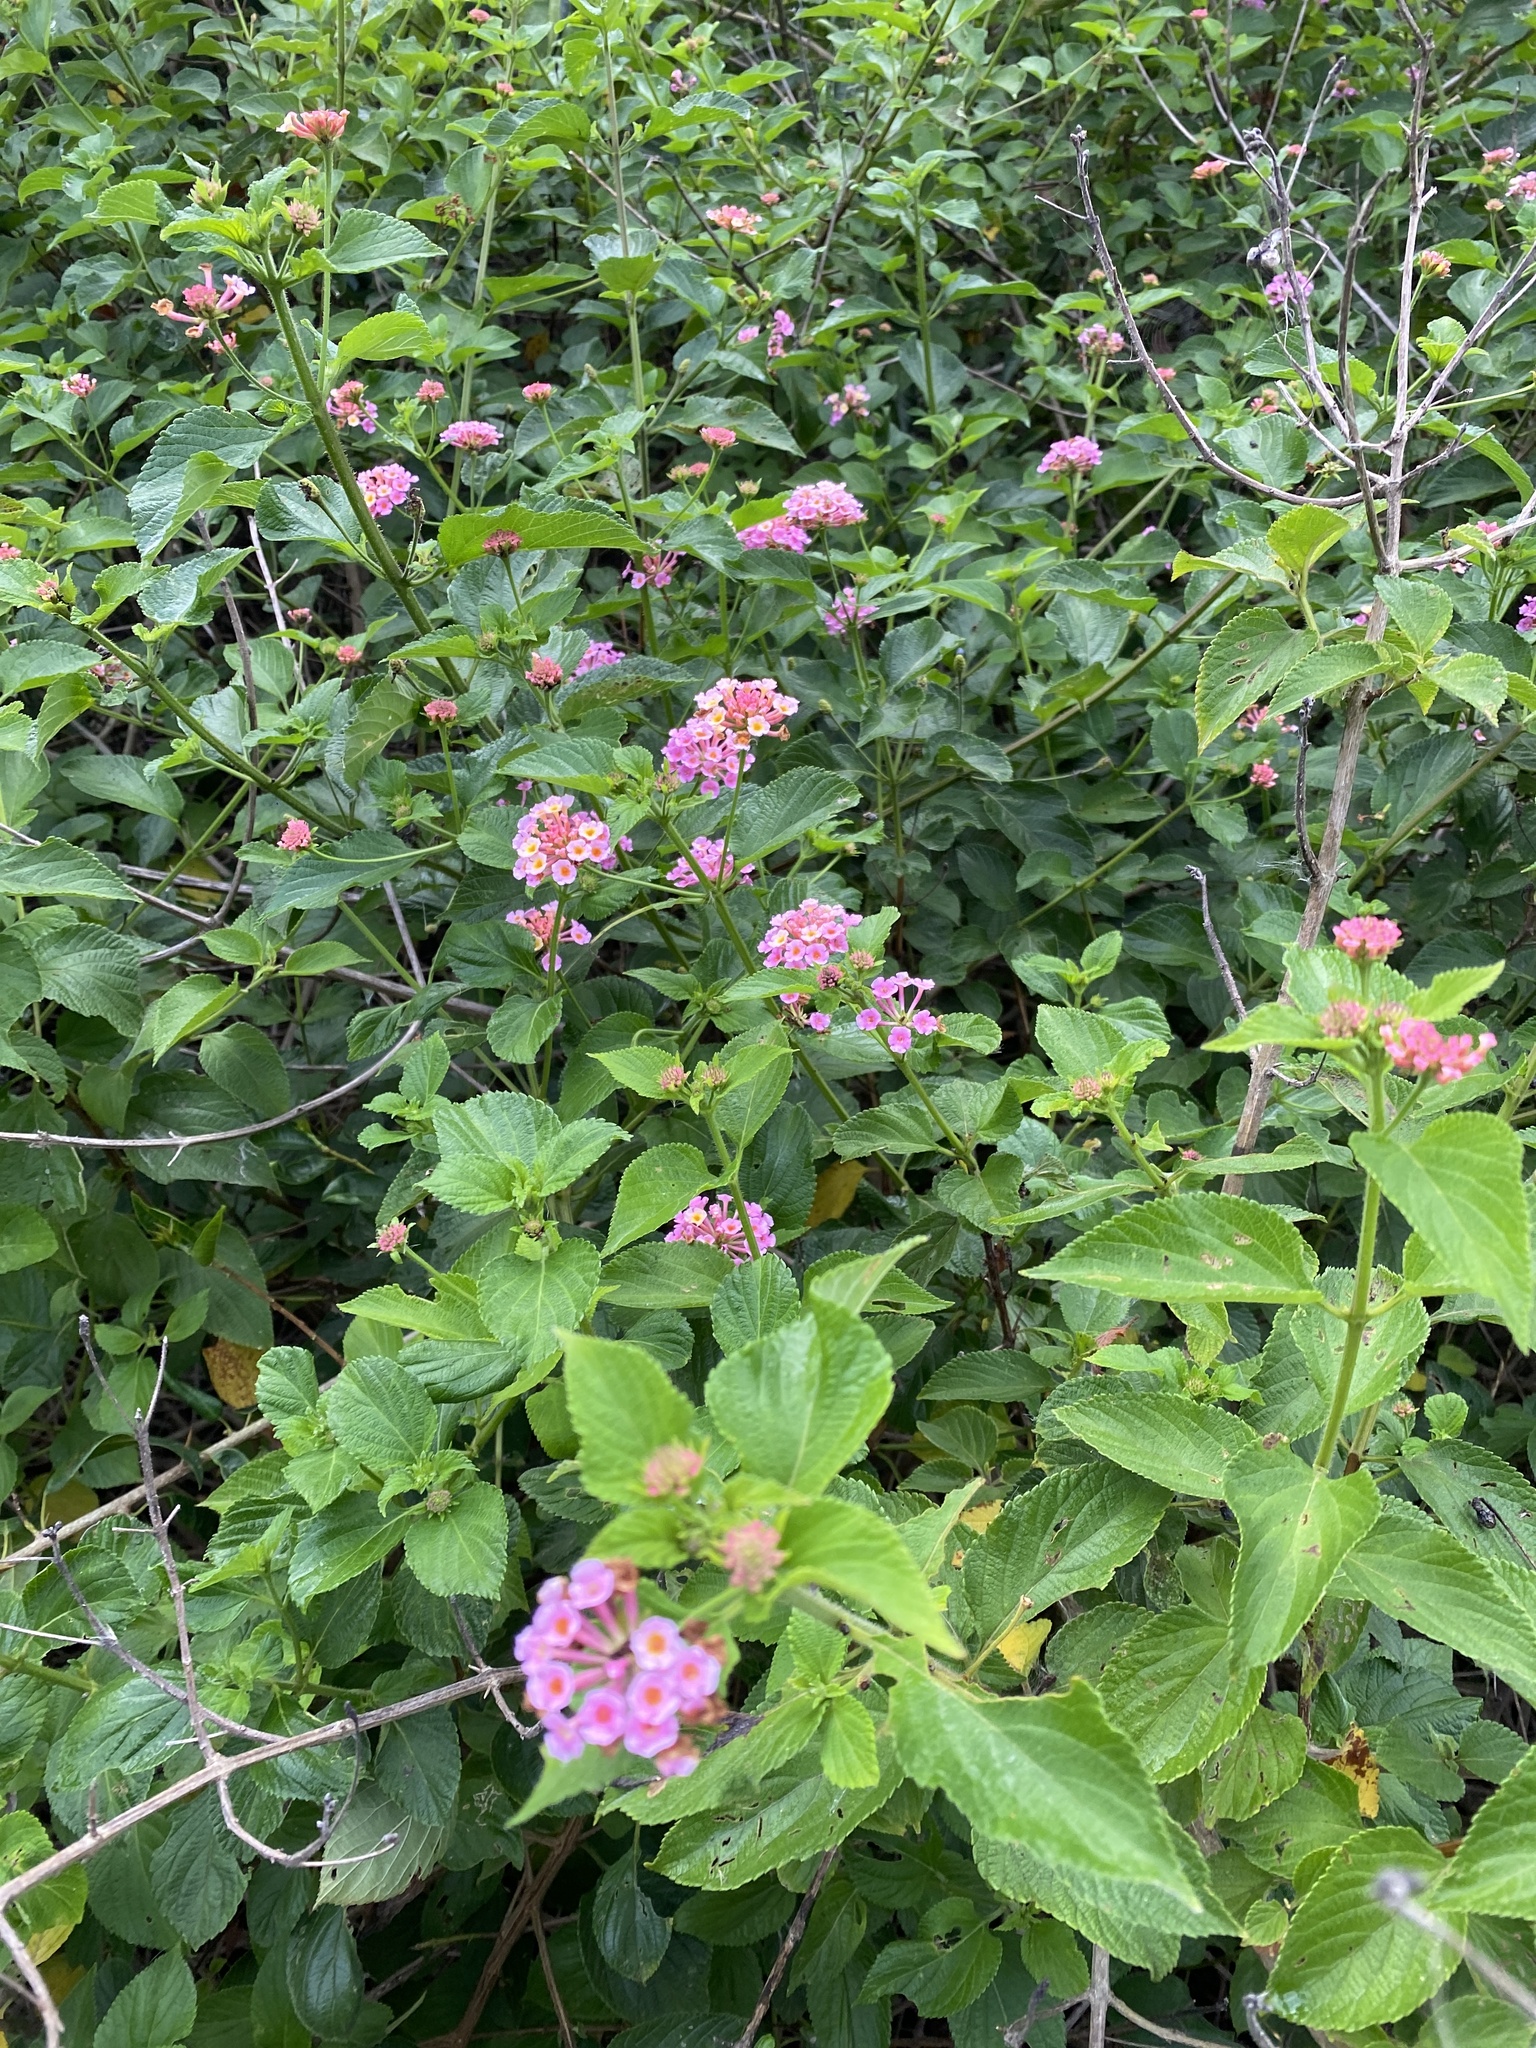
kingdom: Plantae
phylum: Tracheophyta
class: Magnoliopsida
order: Lamiales
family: Verbenaceae
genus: Lantana
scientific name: Lantana camara
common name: Lantana
